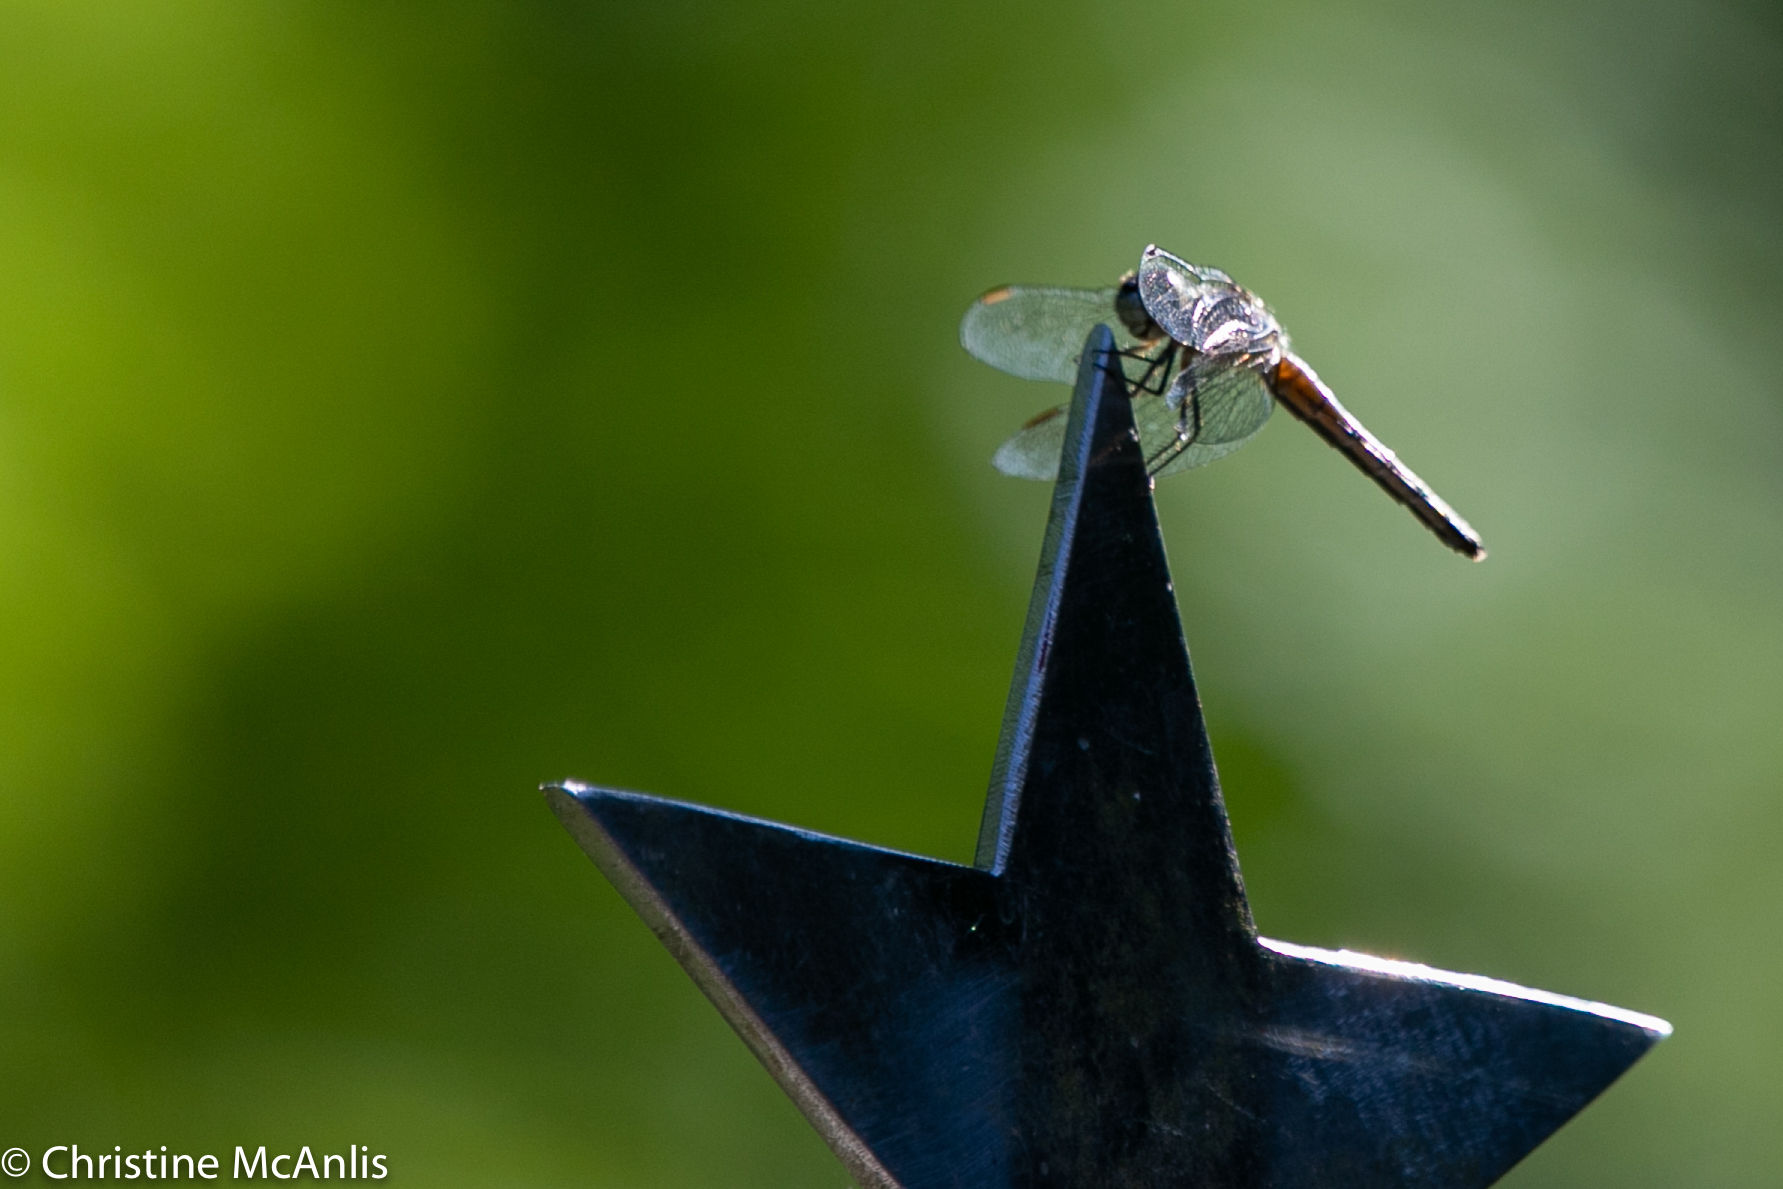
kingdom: Animalia
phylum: Arthropoda
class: Insecta
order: Odonata
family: Libellulidae
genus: Pachydiplax
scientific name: Pachydiplax longipennis
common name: Blue dasher
